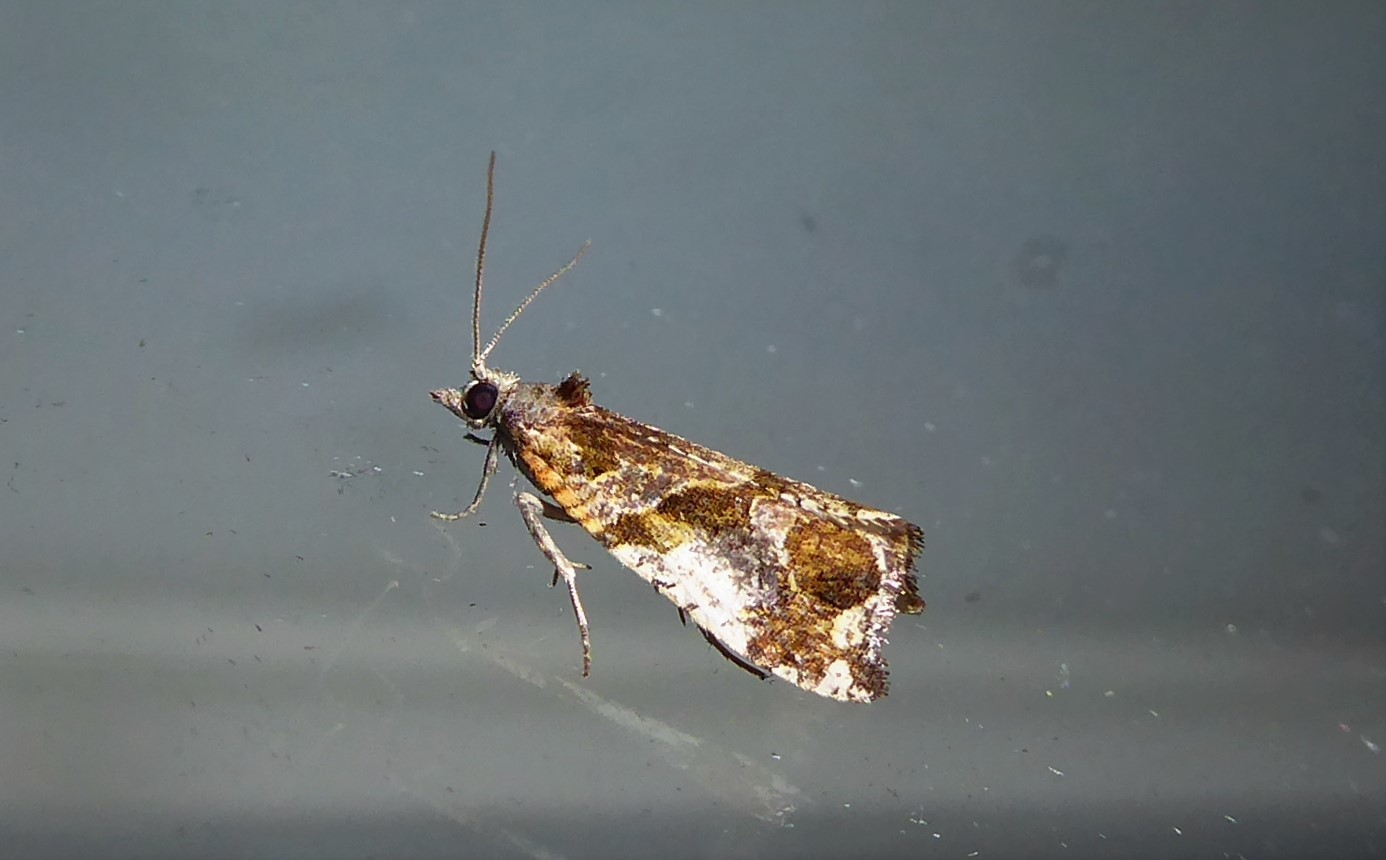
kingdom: Animalia
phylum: Arthropoda
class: Insecta
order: Lepidoptera
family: Tortricidae
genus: Pyrgotis
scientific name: Pyrgotis plagiatana
